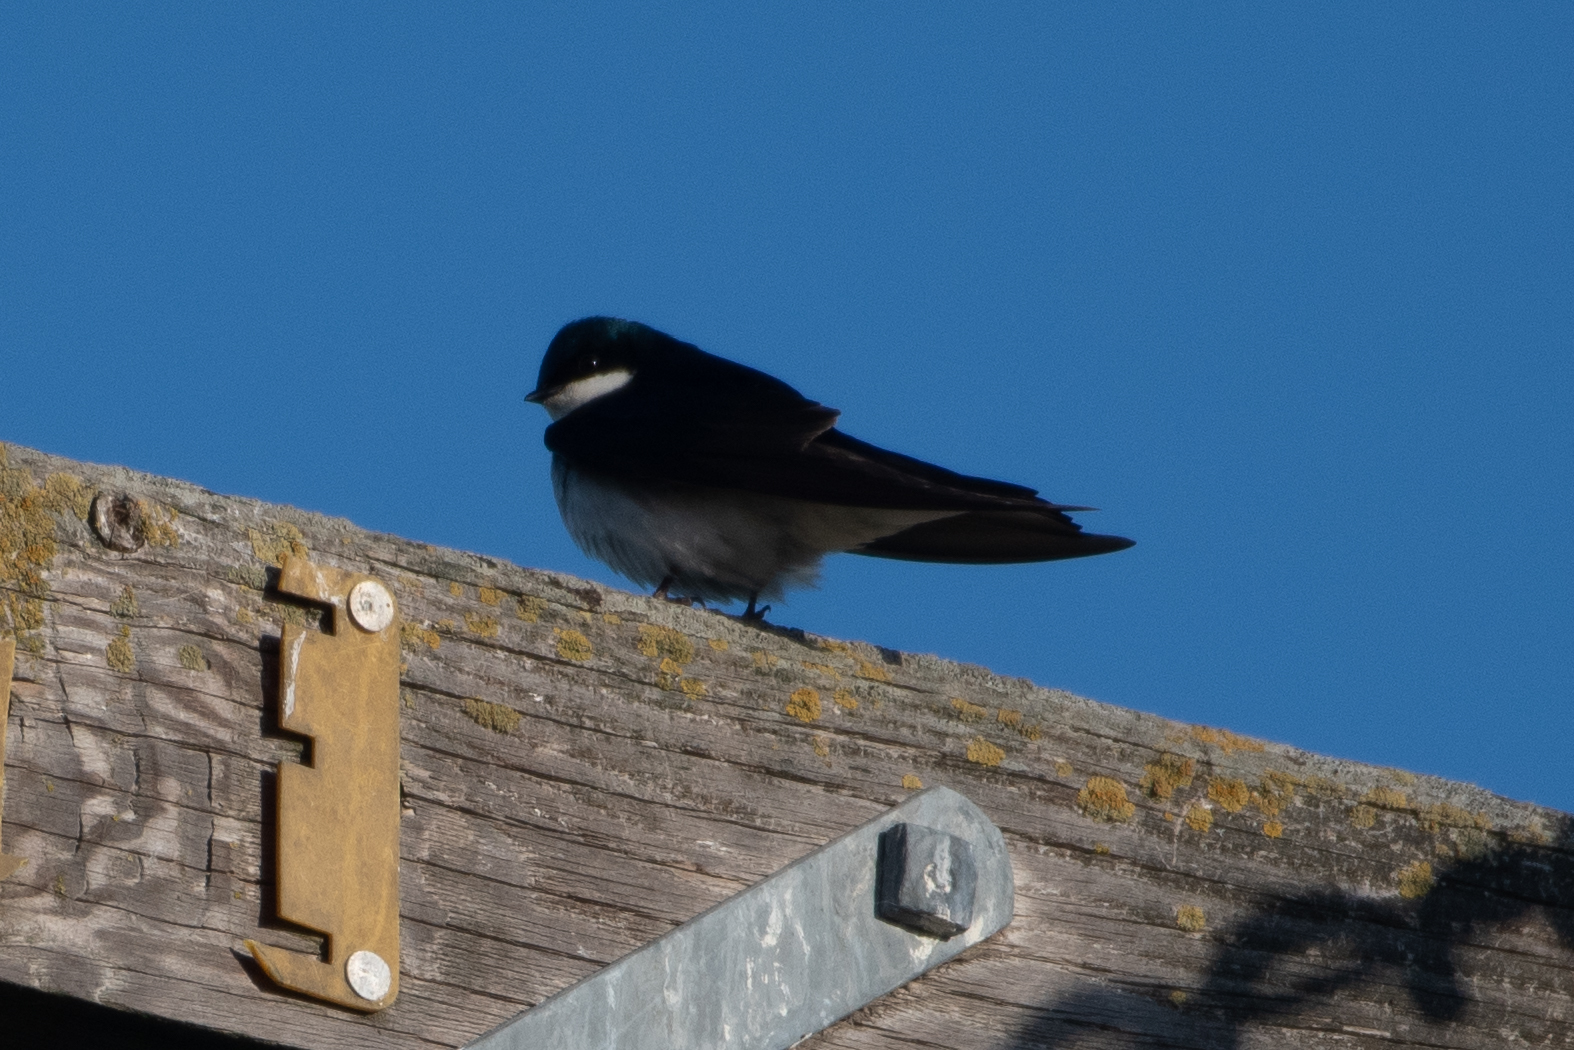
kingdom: Animalia
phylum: Chordata
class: Aves
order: Passeriformes
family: Hirundinidae
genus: Tachycineta
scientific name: Tachycineta bicolor
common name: Tree swallow
